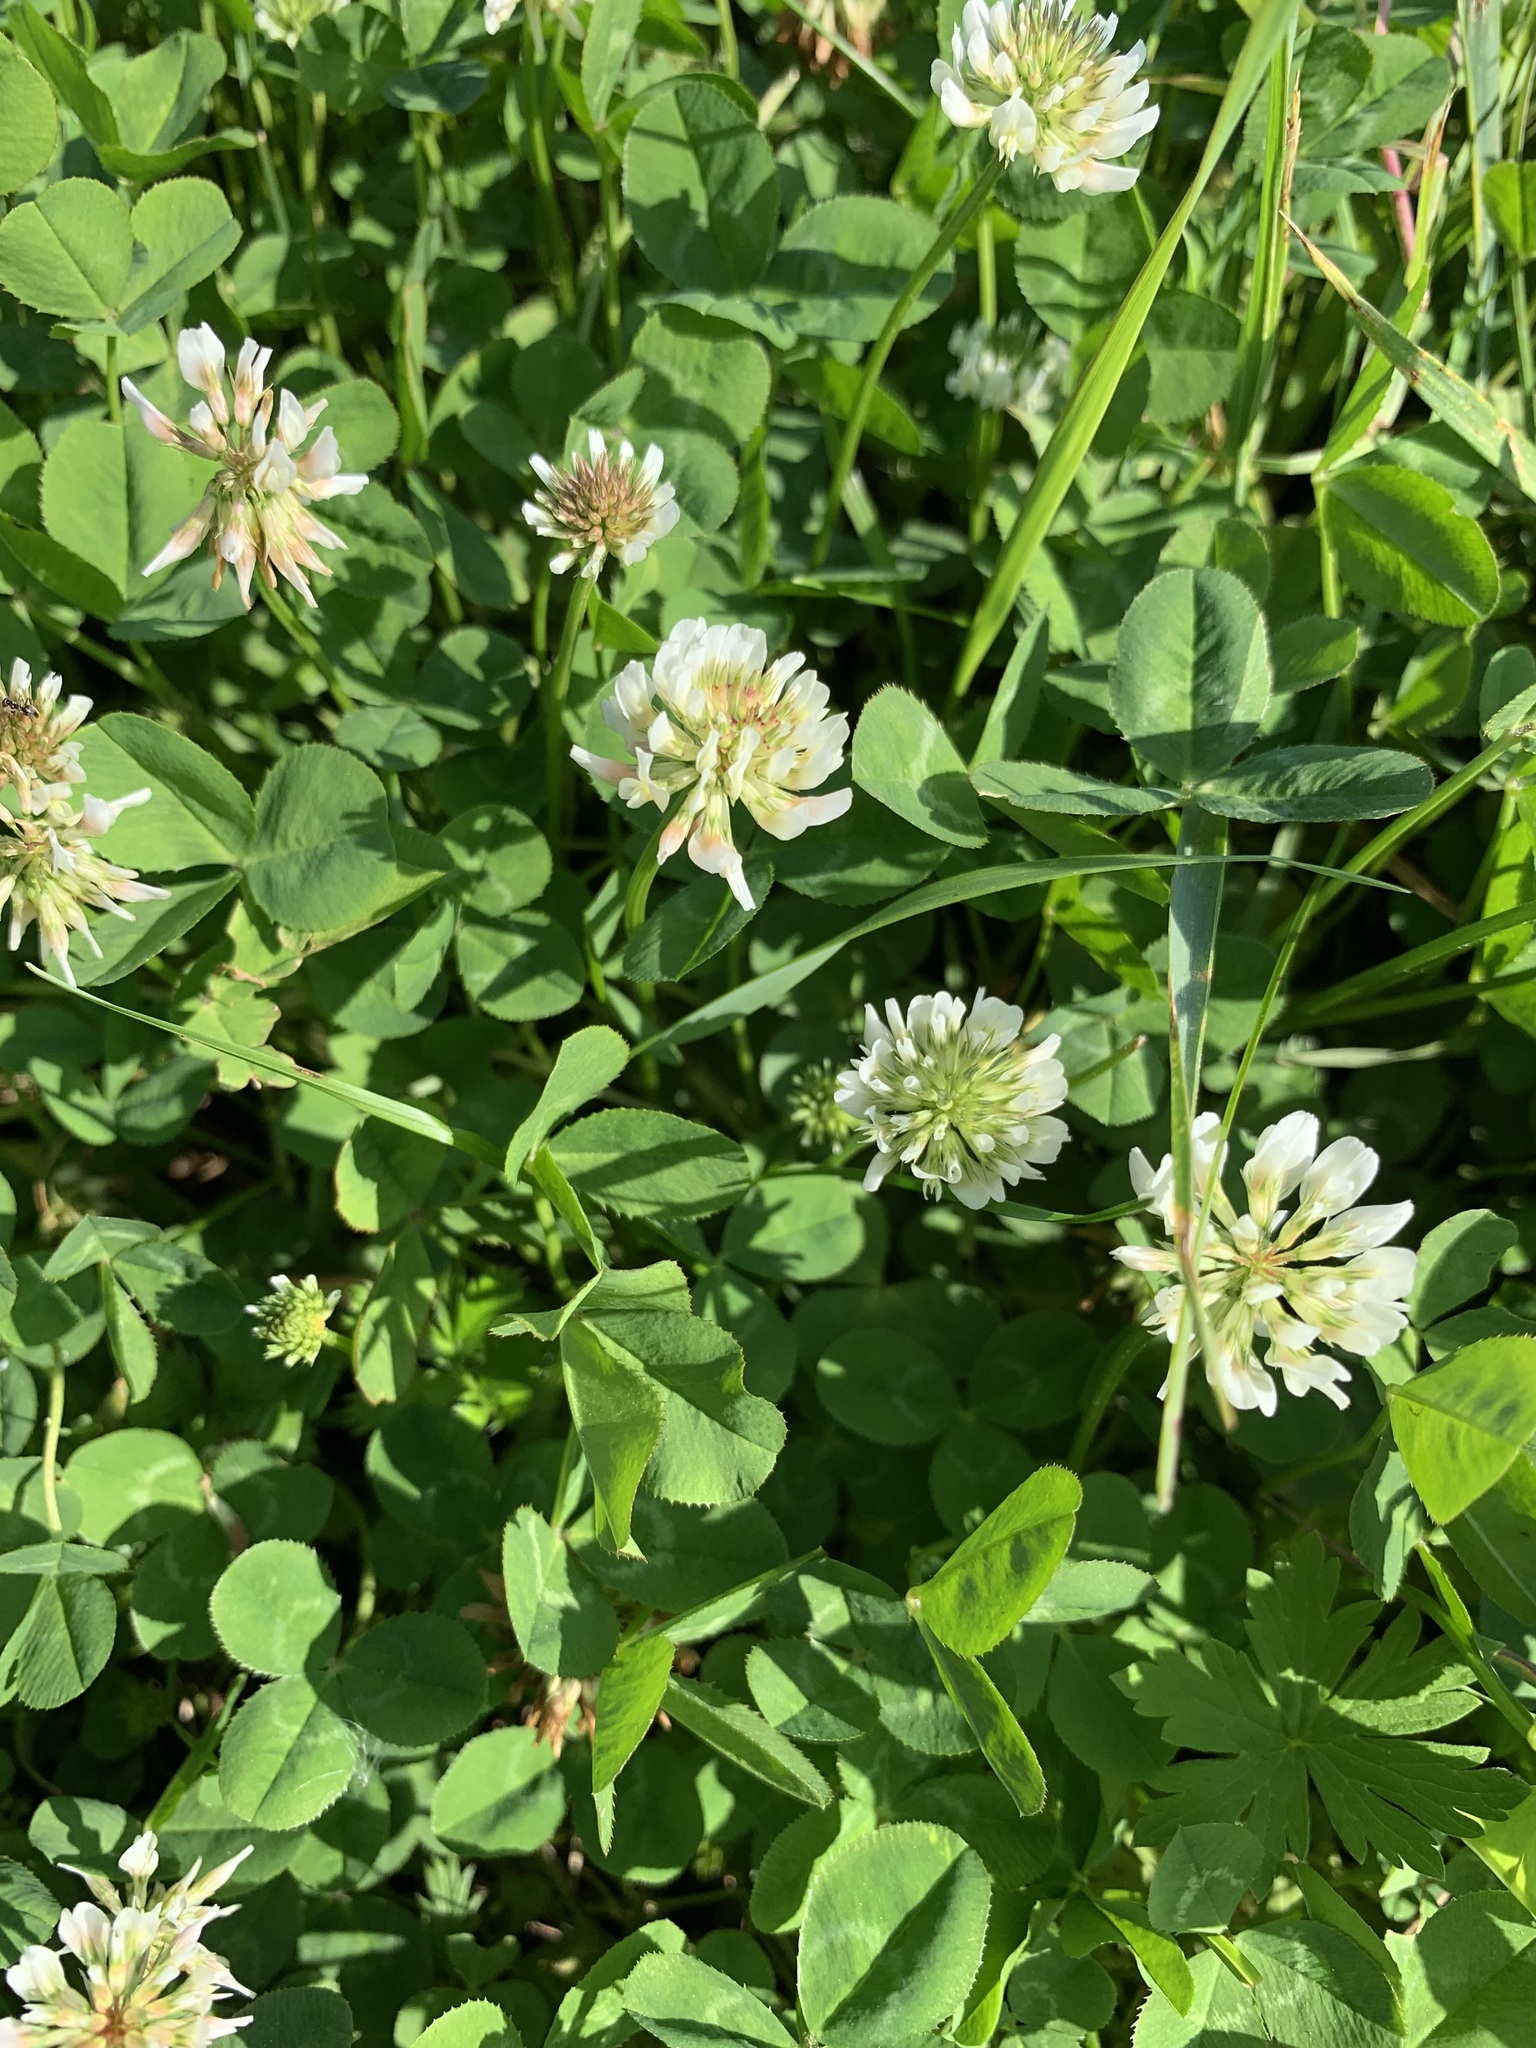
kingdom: Plantae
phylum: Tracheophyta
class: Magnoliopsida
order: Fabales
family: Fabaceae
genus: Trifolium
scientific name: Trifolium repens
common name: White clover
